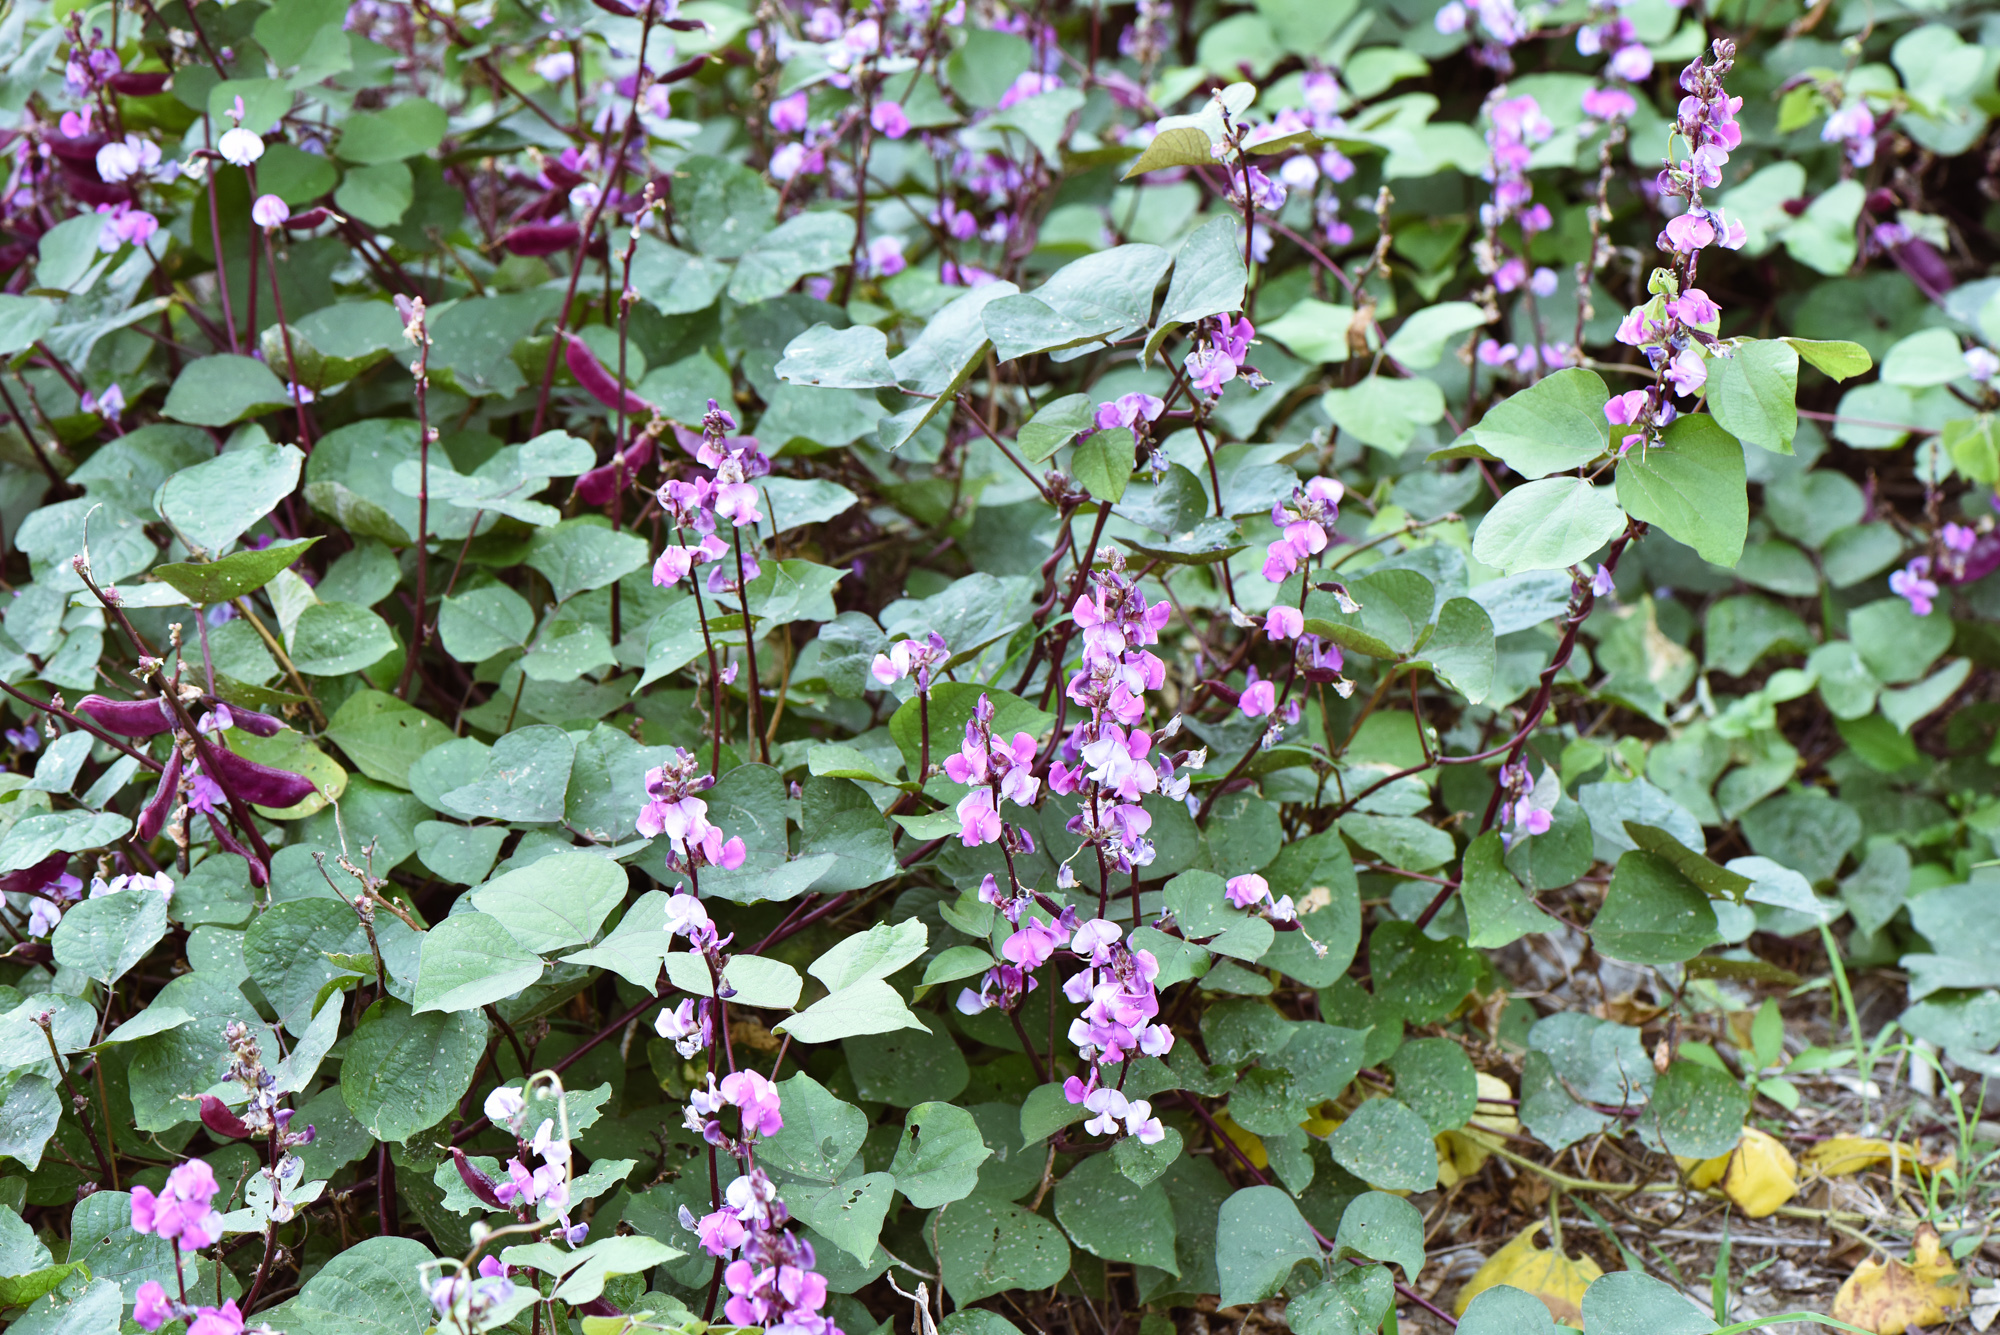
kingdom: Plantae
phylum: Tracheophyta
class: Magnoliopsida
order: Fabales
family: Fabaceae
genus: Lablab
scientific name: Lablab purpureus
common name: Lablab-bean
